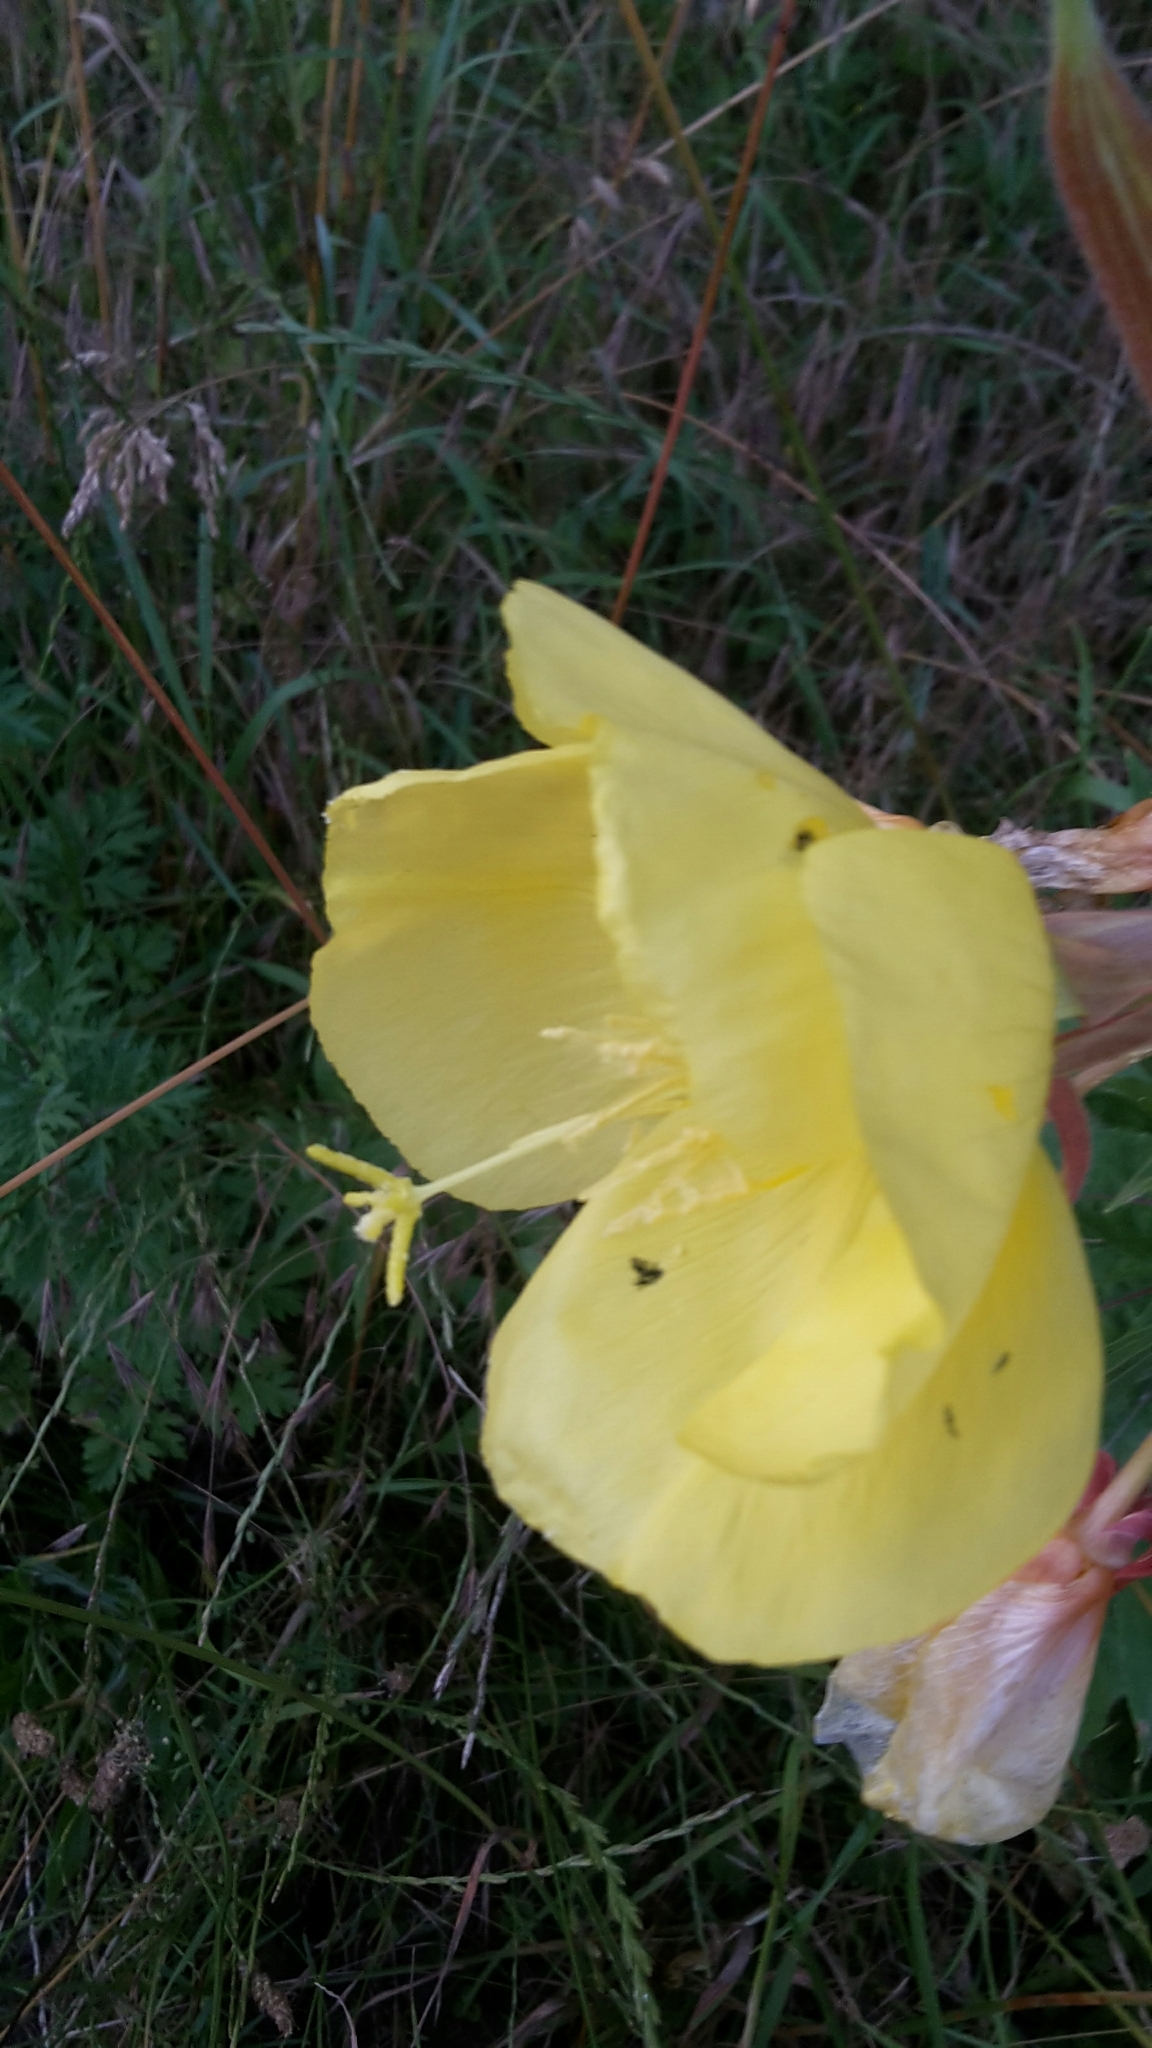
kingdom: Plantae
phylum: Tracheophyta
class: Magnoliopsida
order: Myrtales
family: Onagraceae
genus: Oenothera
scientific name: Oenothera glazioviana
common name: Large-flowered evening-primrose
